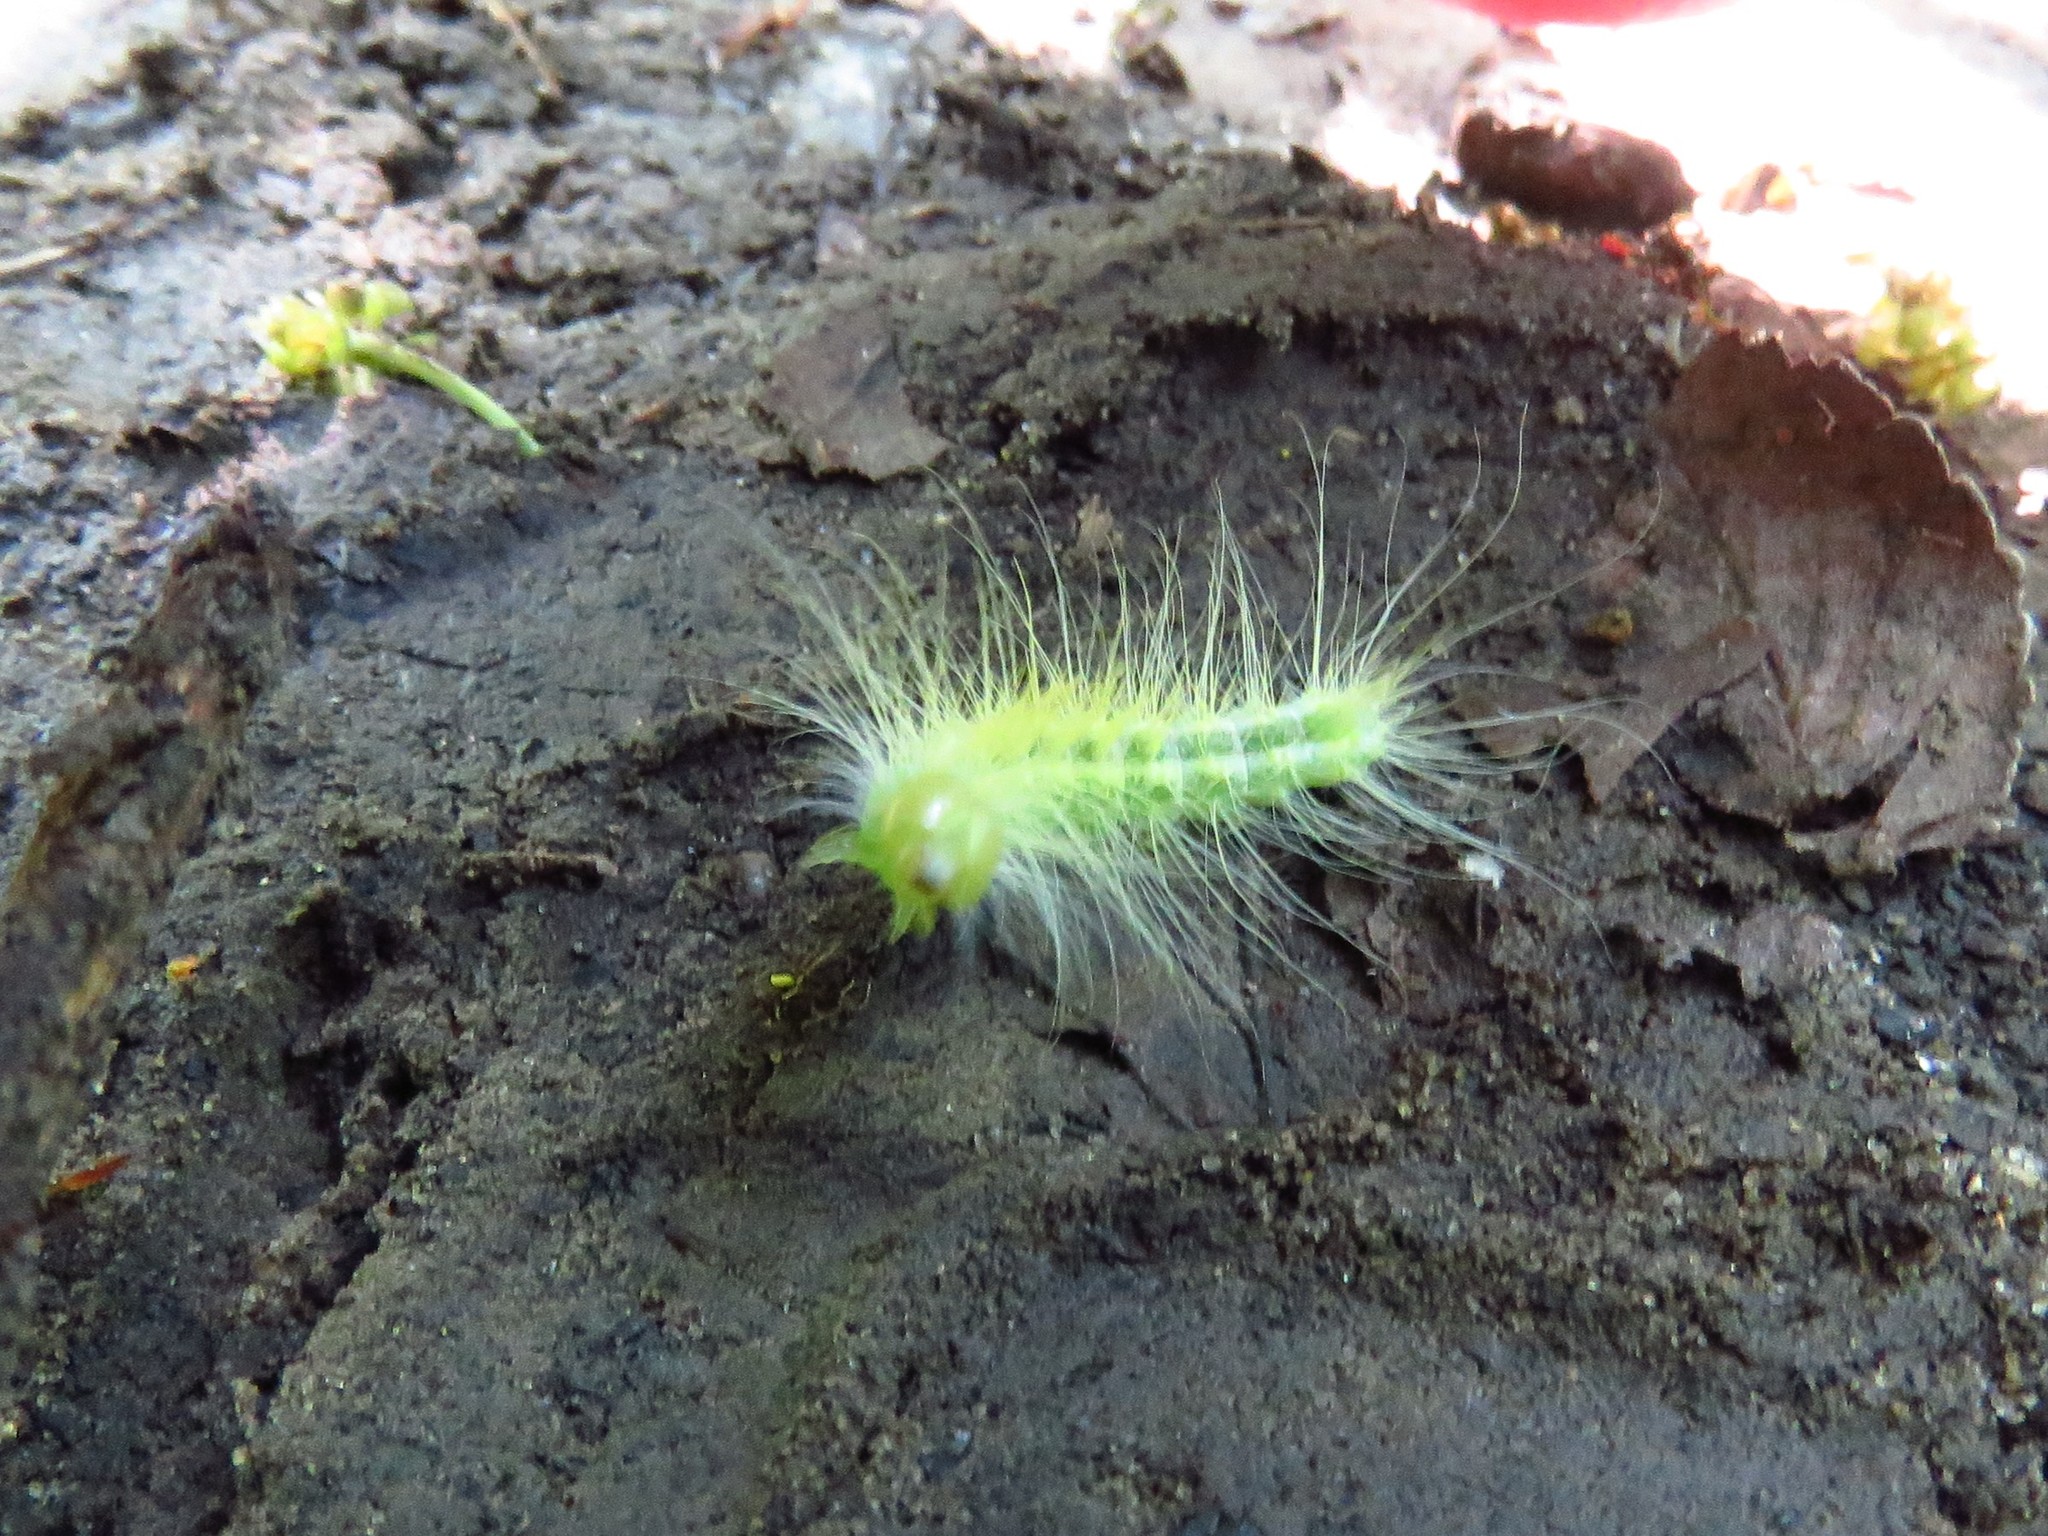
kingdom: Animalia
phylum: Arthropoda
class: Insecta
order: Lepidoptera
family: Noctuidae
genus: Acronicta
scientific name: Acronicta rubricoma
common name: Hackberry dagger
